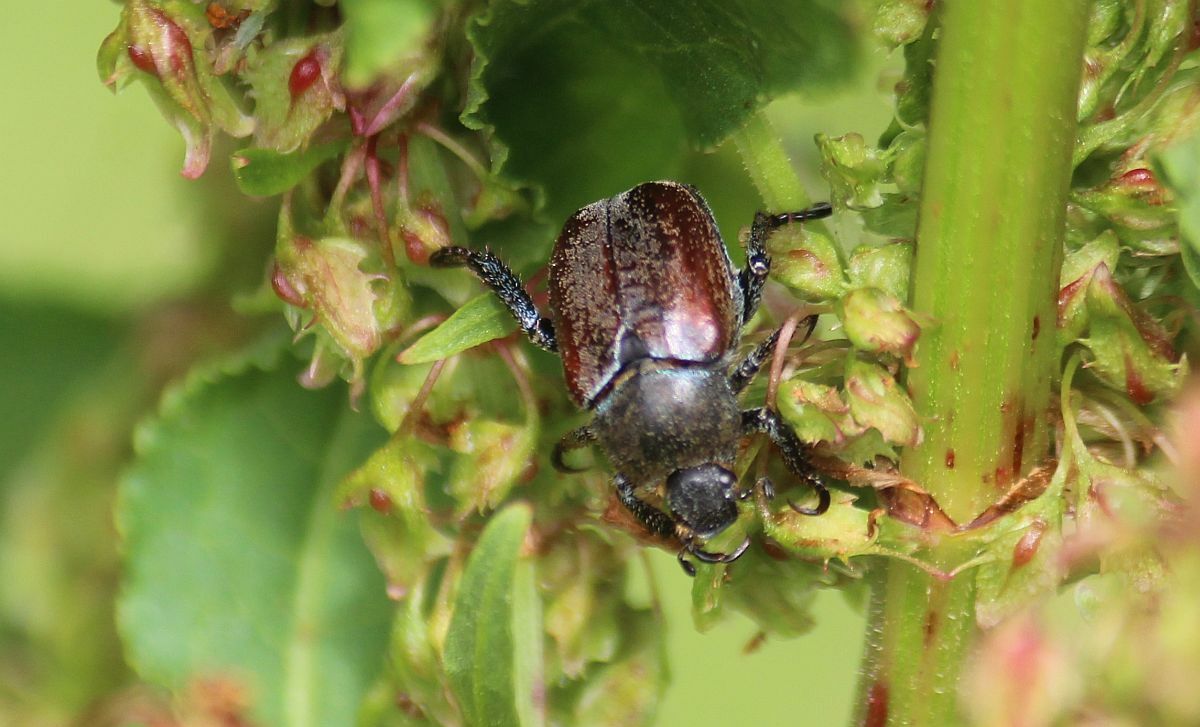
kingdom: Animalia
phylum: Arthropoda
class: Insecta
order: Coleoptera
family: Scarabaeidae
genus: Hoplia
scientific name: Hoplia philanthus
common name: Welsh chafer
